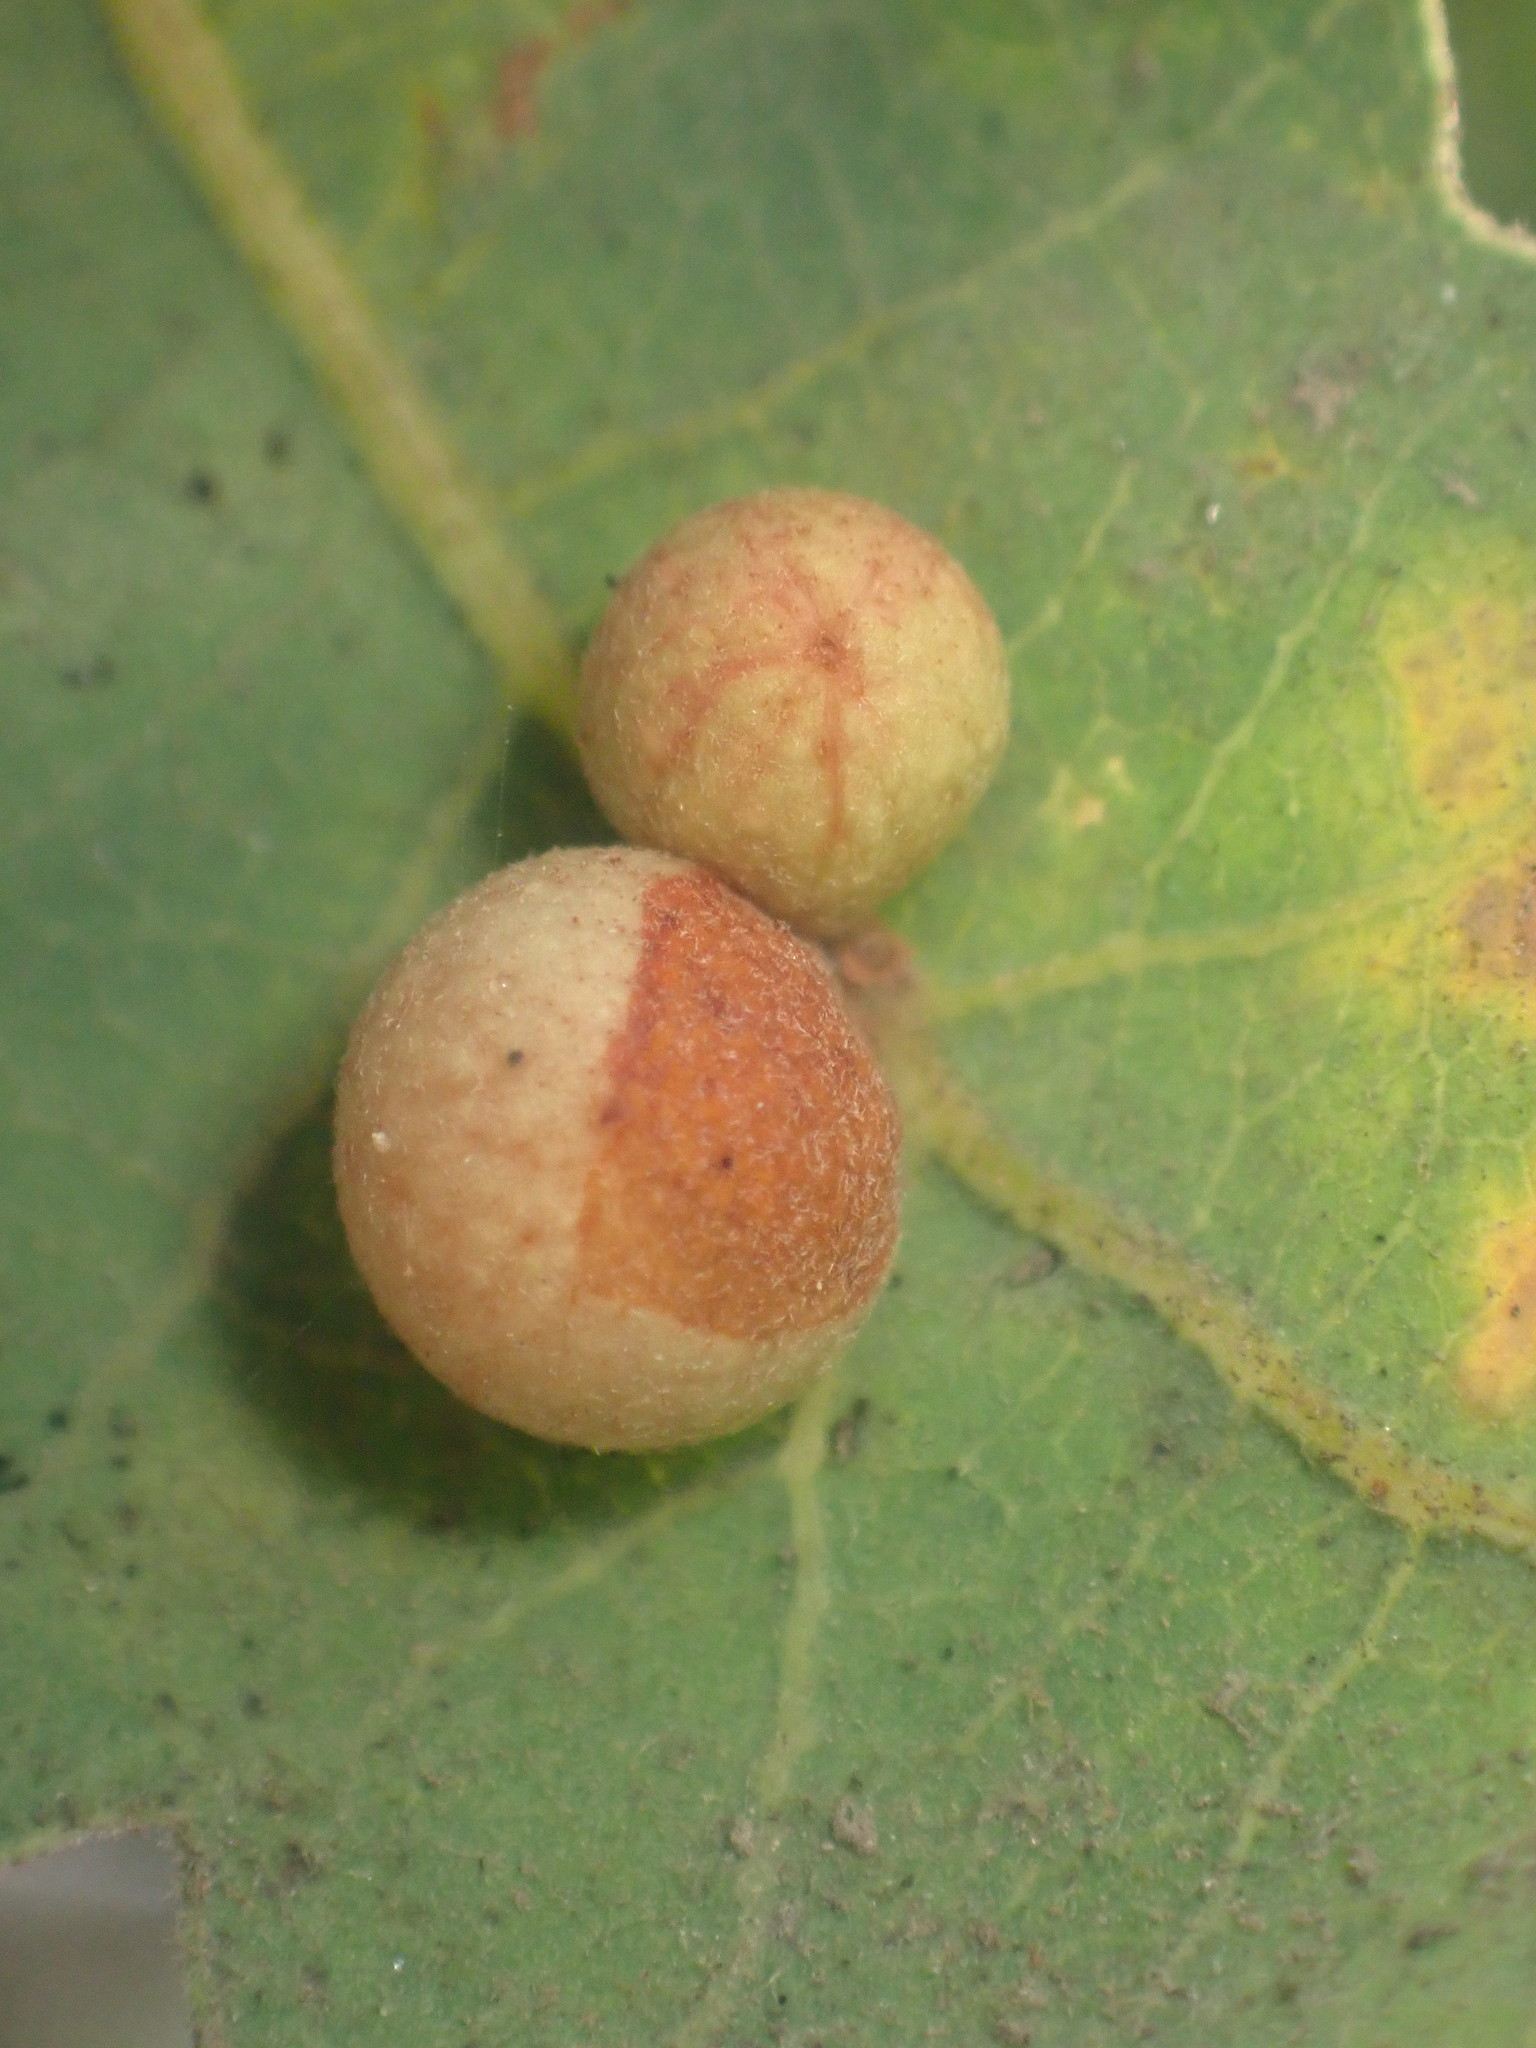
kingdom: Animalia
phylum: Arthropoda
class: Insecta
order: Hymenoptera
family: Cynipidae
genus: Andricus
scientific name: Andricus
